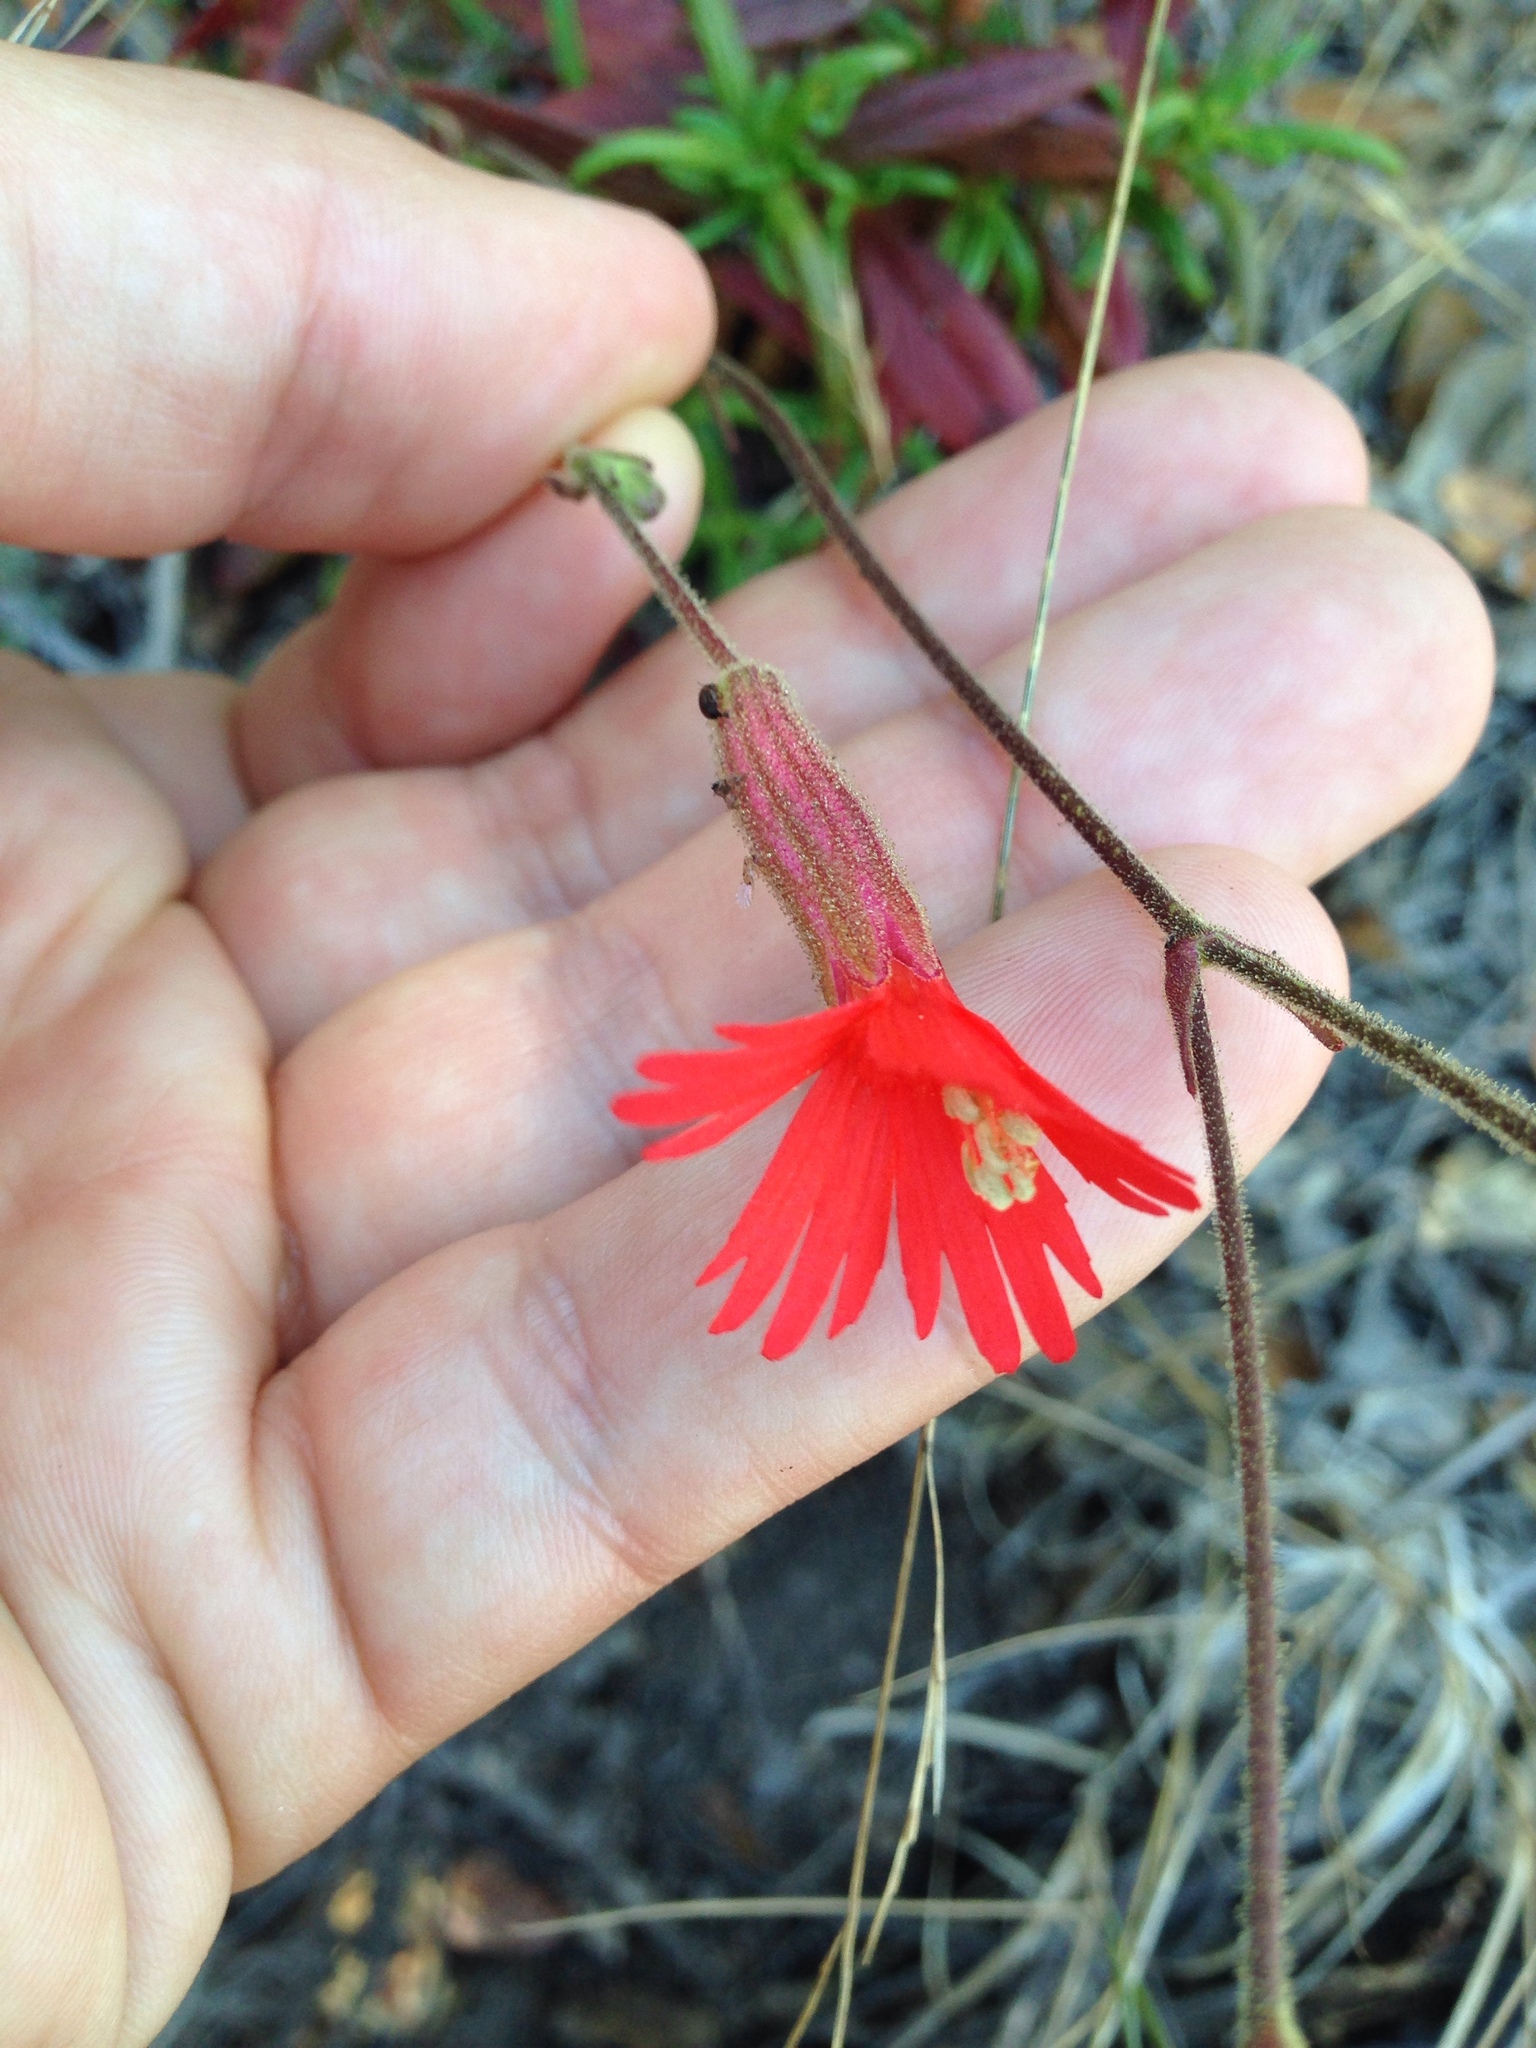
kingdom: Plantae
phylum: Tracheophyta
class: Magnoliopsida
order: Caryophyllales
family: Caryophyllaceae
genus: Silene
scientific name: Silene laciniata
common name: Indian-pink
